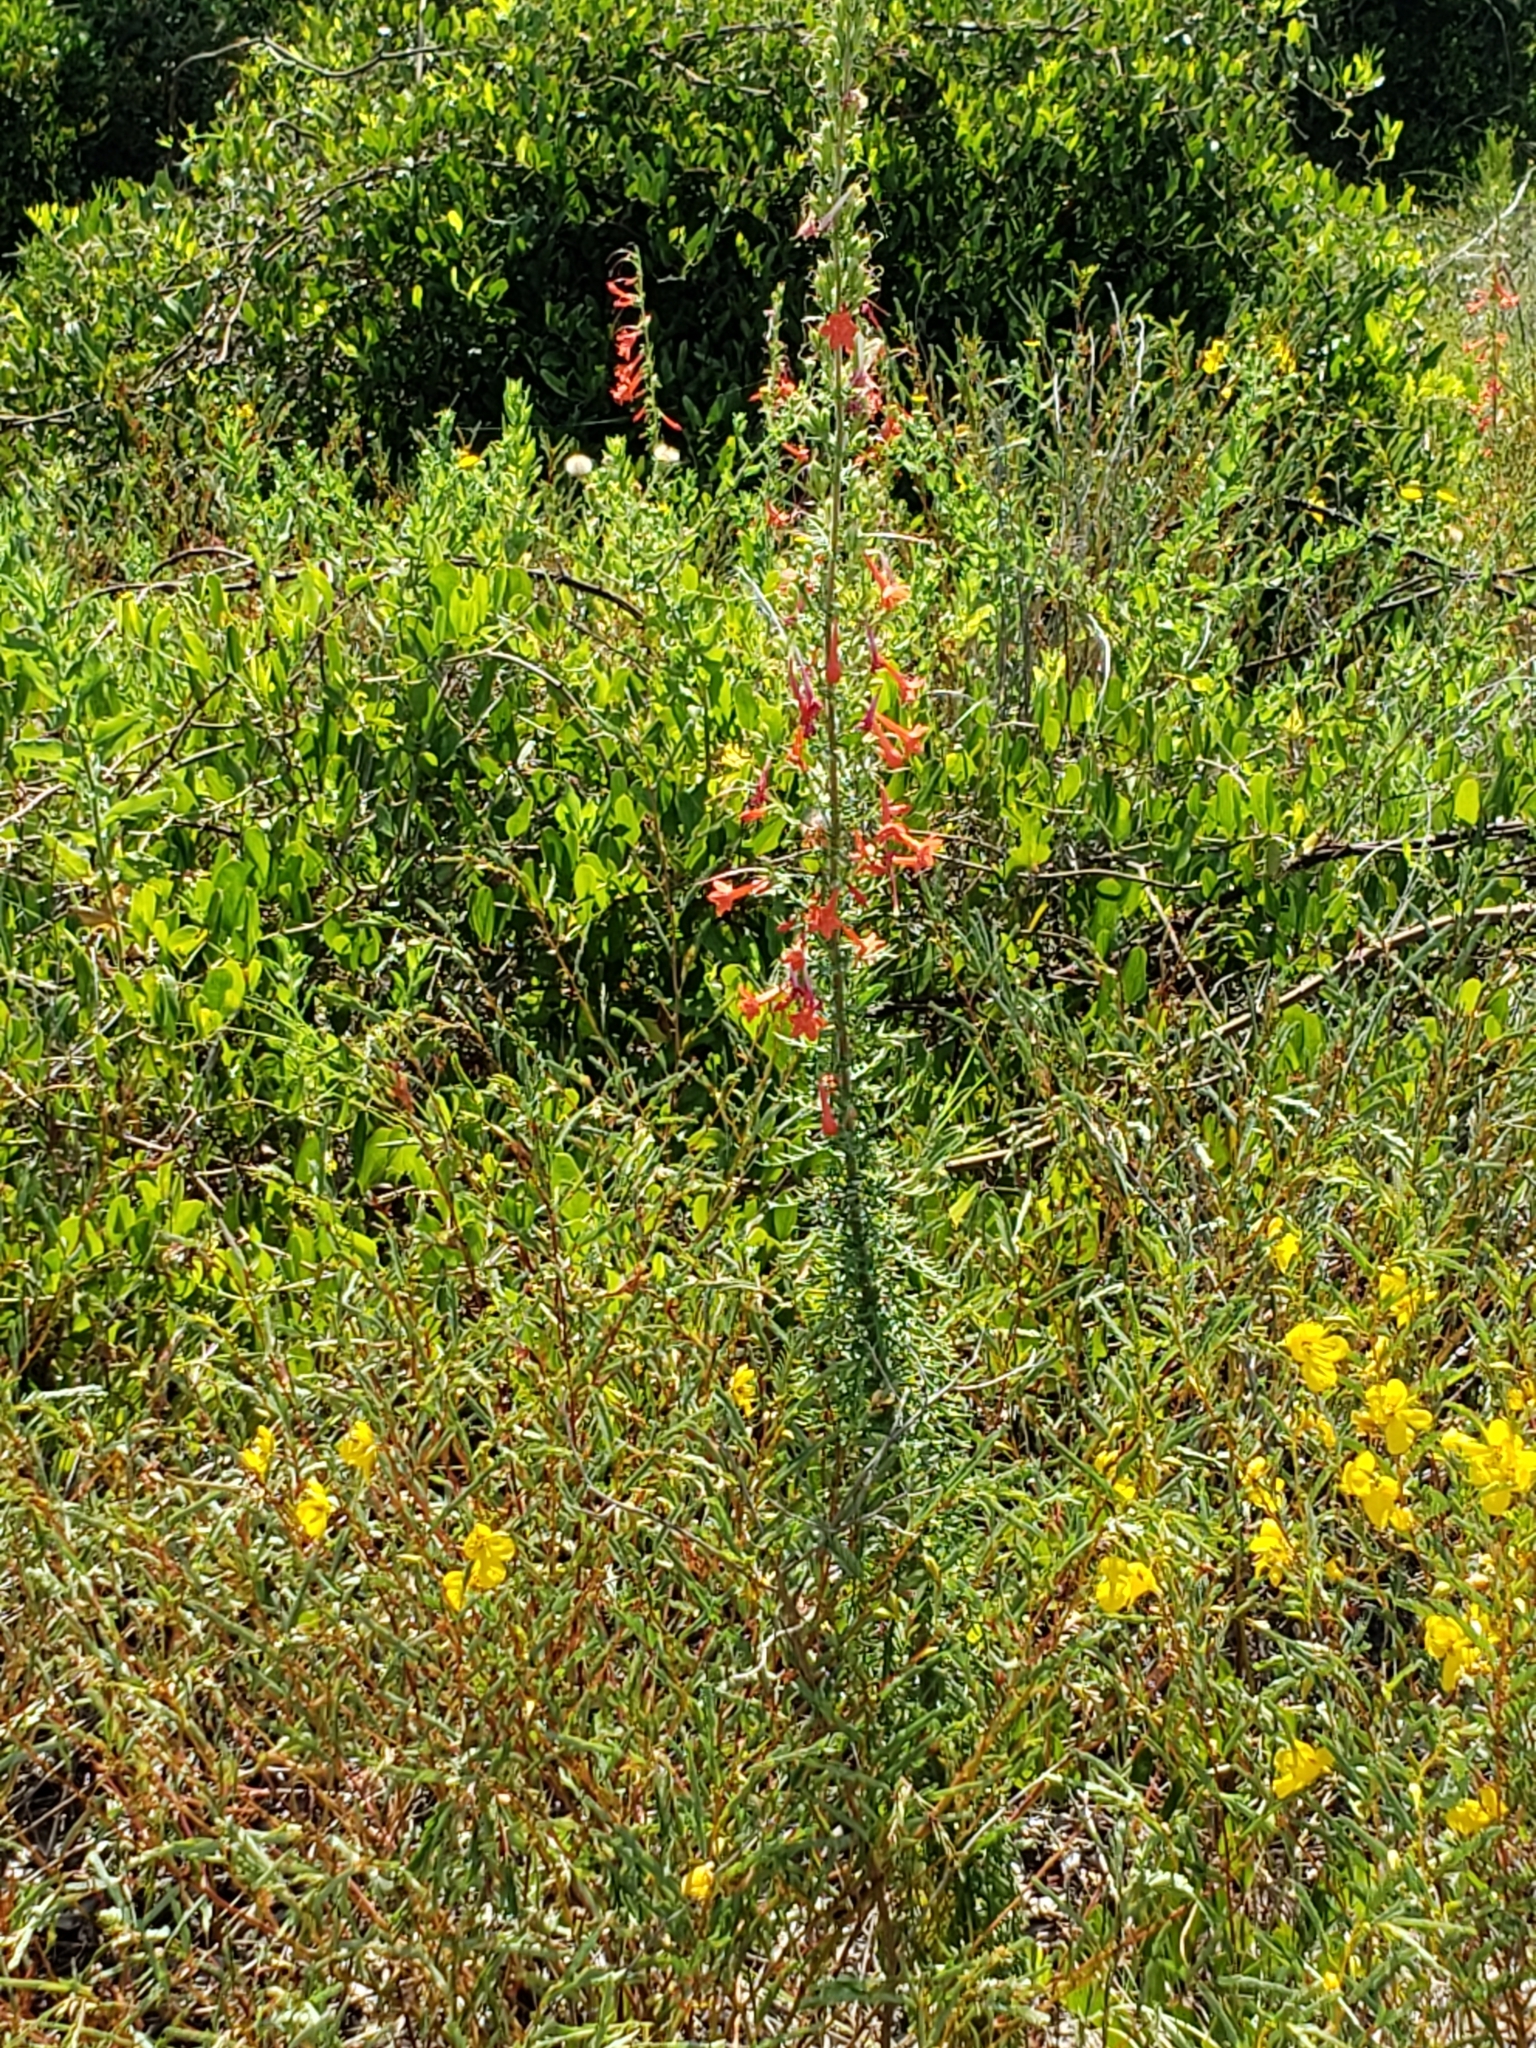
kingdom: Plantae
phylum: Tracheophyta
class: Magnoliopsida
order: Ericales
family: Polemoniaceae
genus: Ipomopsis
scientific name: Ipomopsis rubra
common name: Skyrocket
